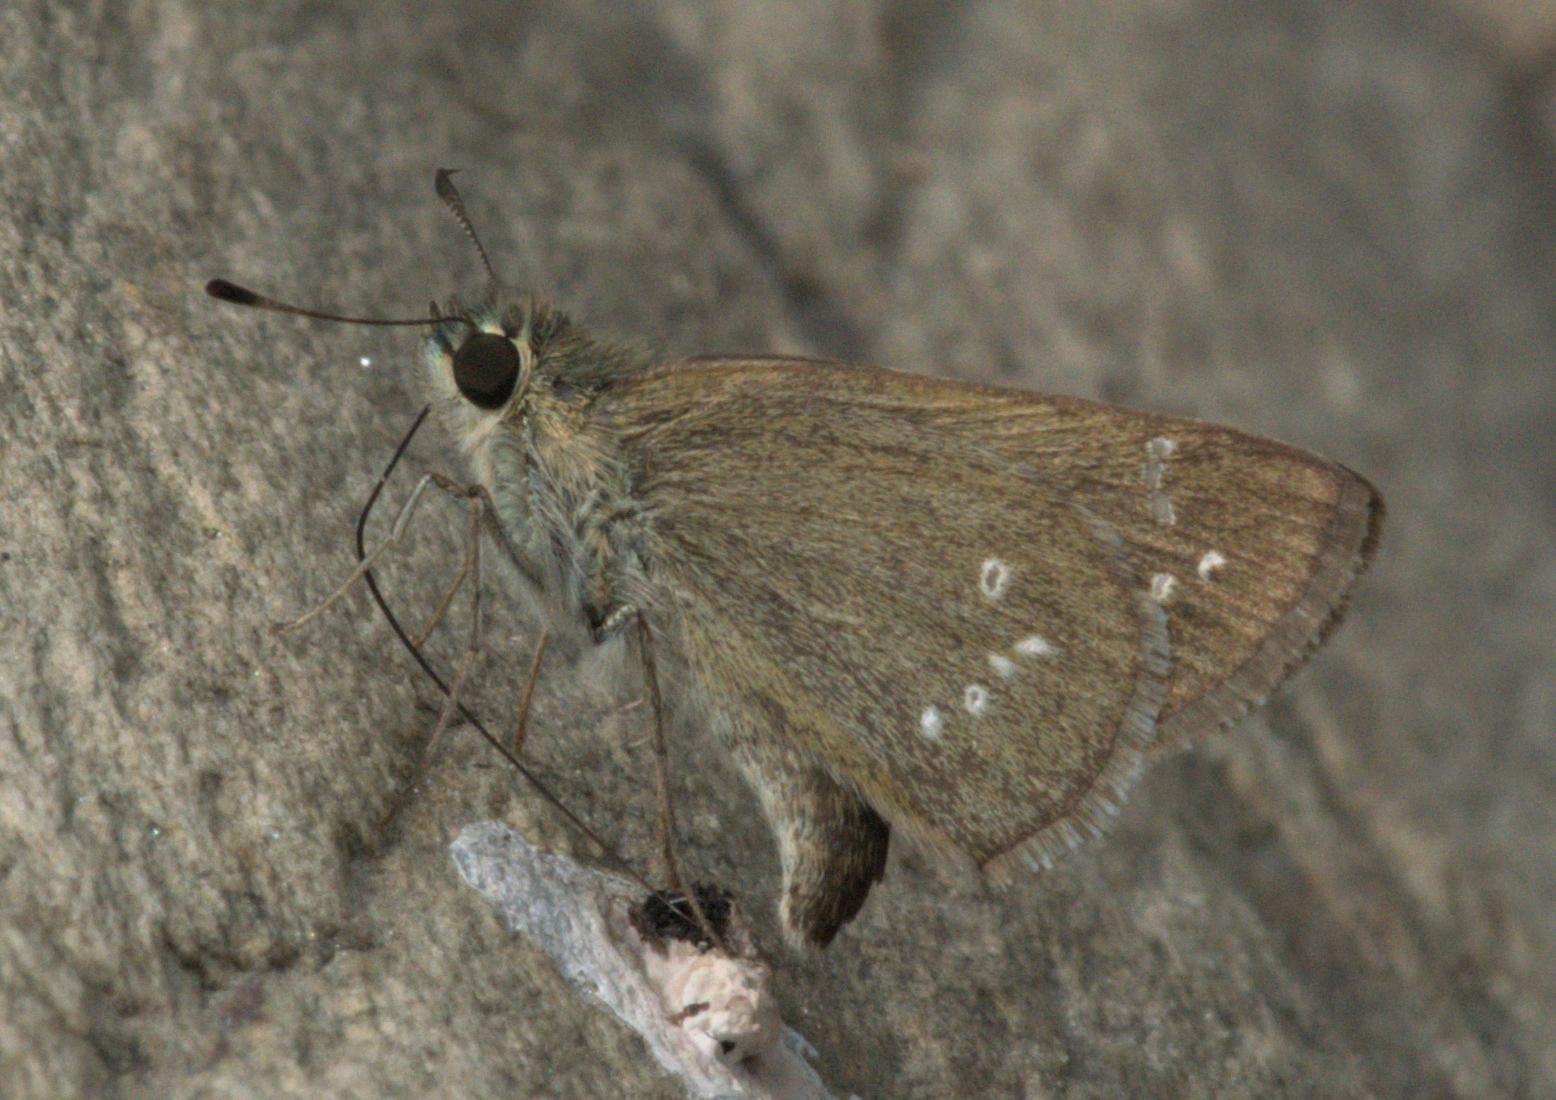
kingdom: Animalia
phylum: Arthropoda
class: Insecta
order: Lepidoptera
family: Hesperiidae
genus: Pseudoborbo
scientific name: Pseudoborbo bevani
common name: Bevan's swift
